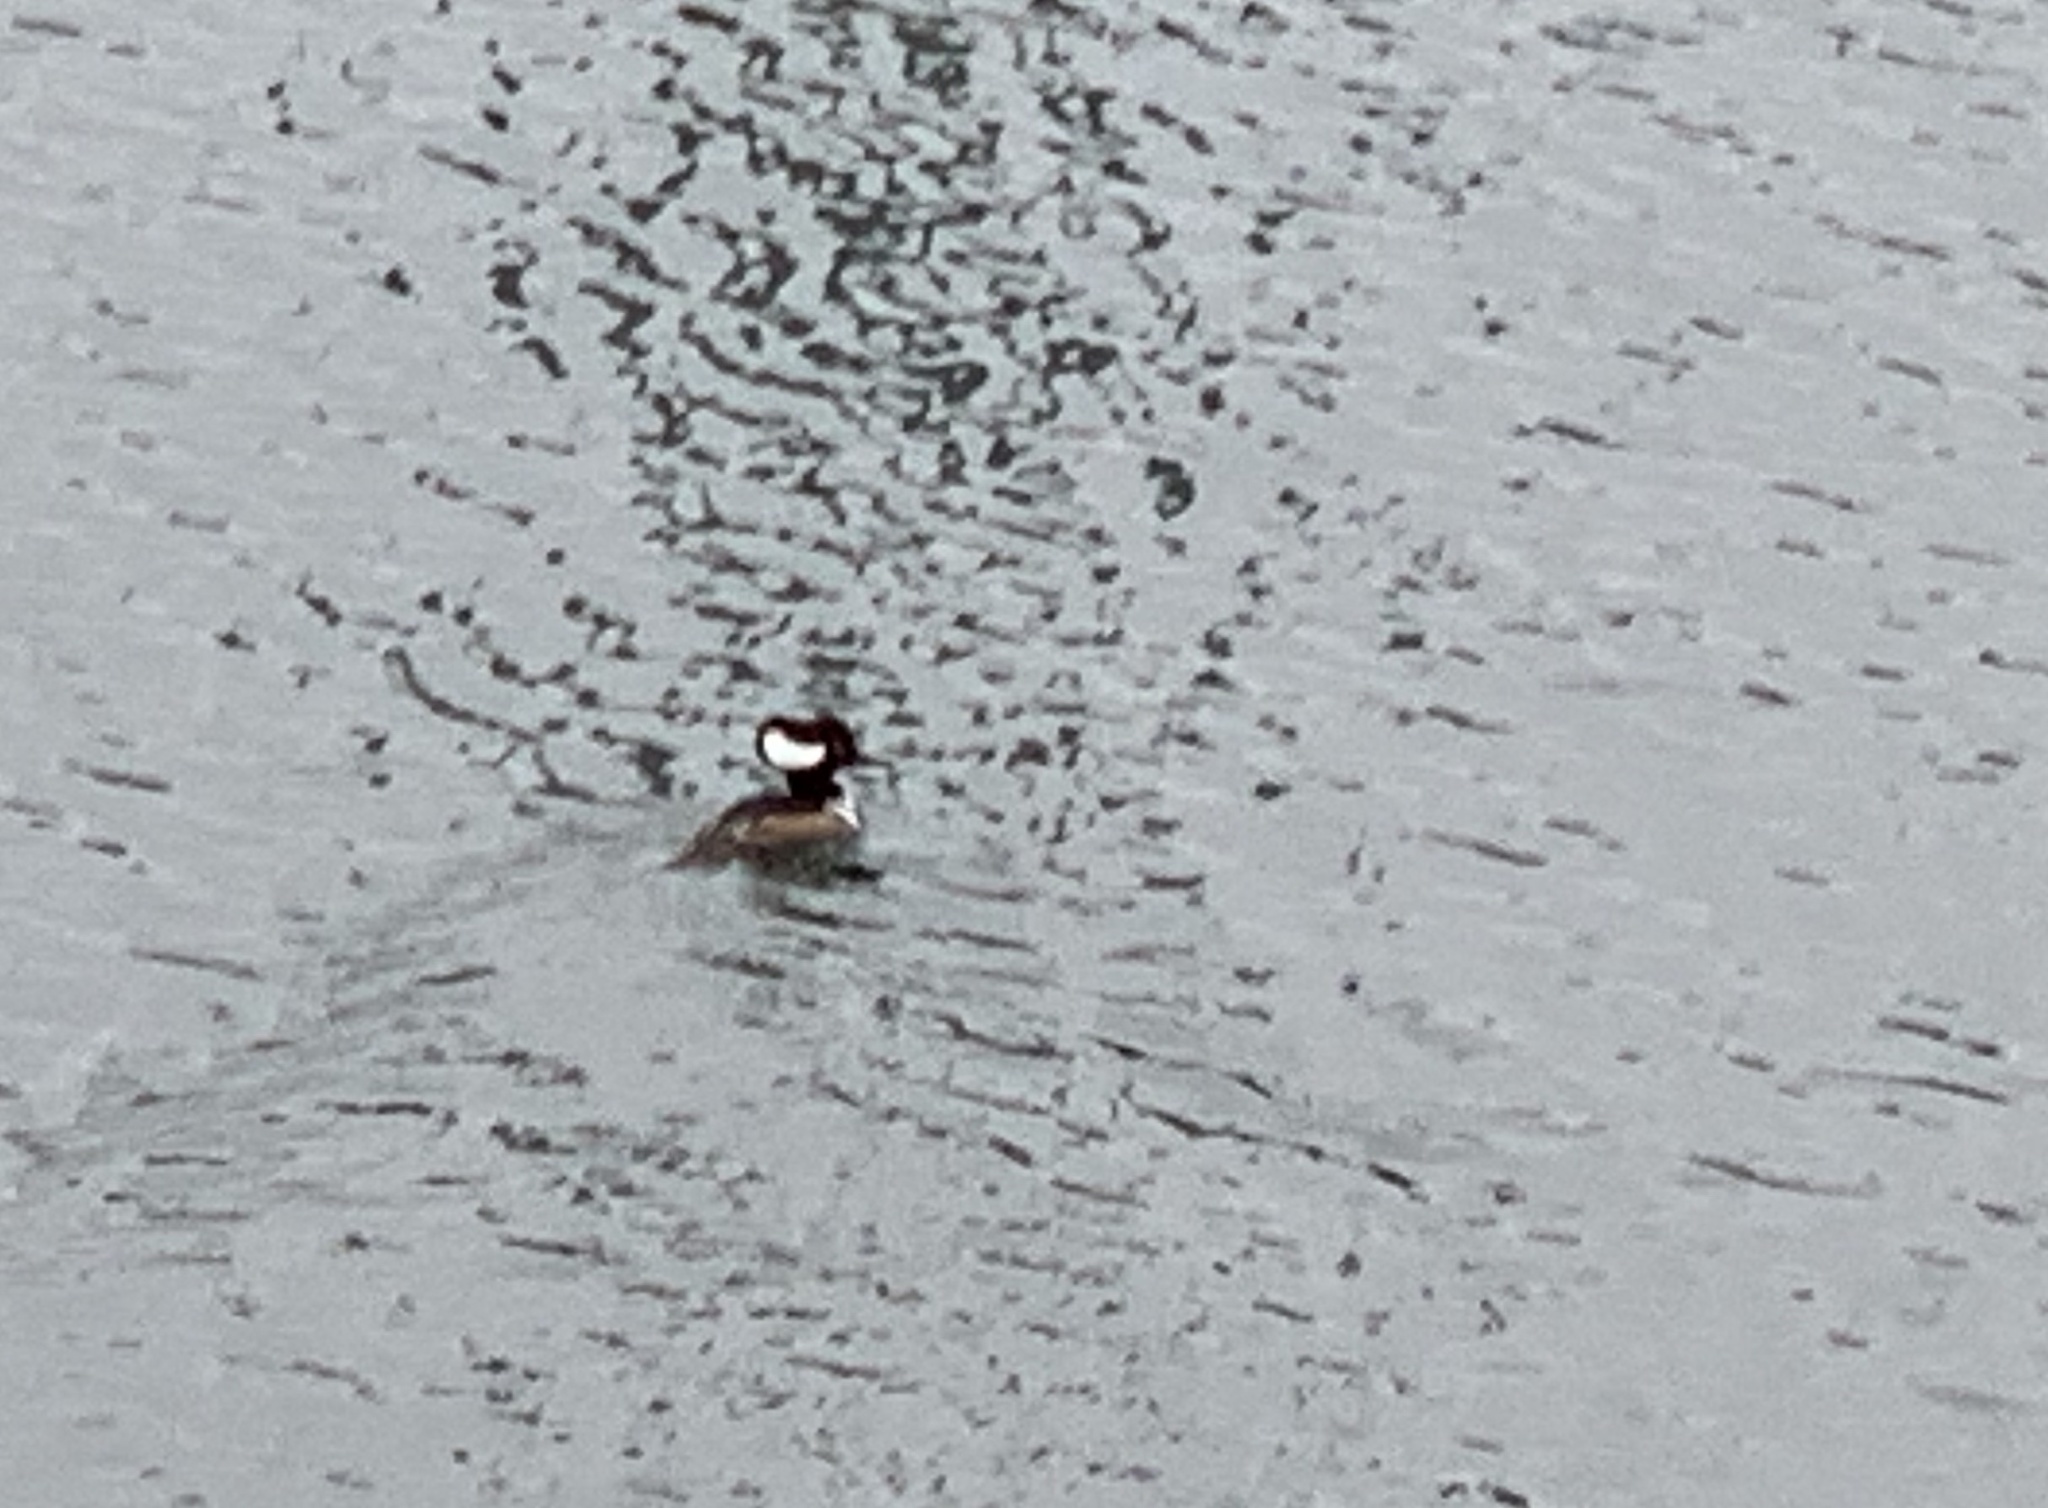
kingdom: Animalia
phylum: Chordata
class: Aves
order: Anseriformes
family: Anatidae
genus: Lophodytes
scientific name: Lophodytes cucullatus
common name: Hooded merganser
